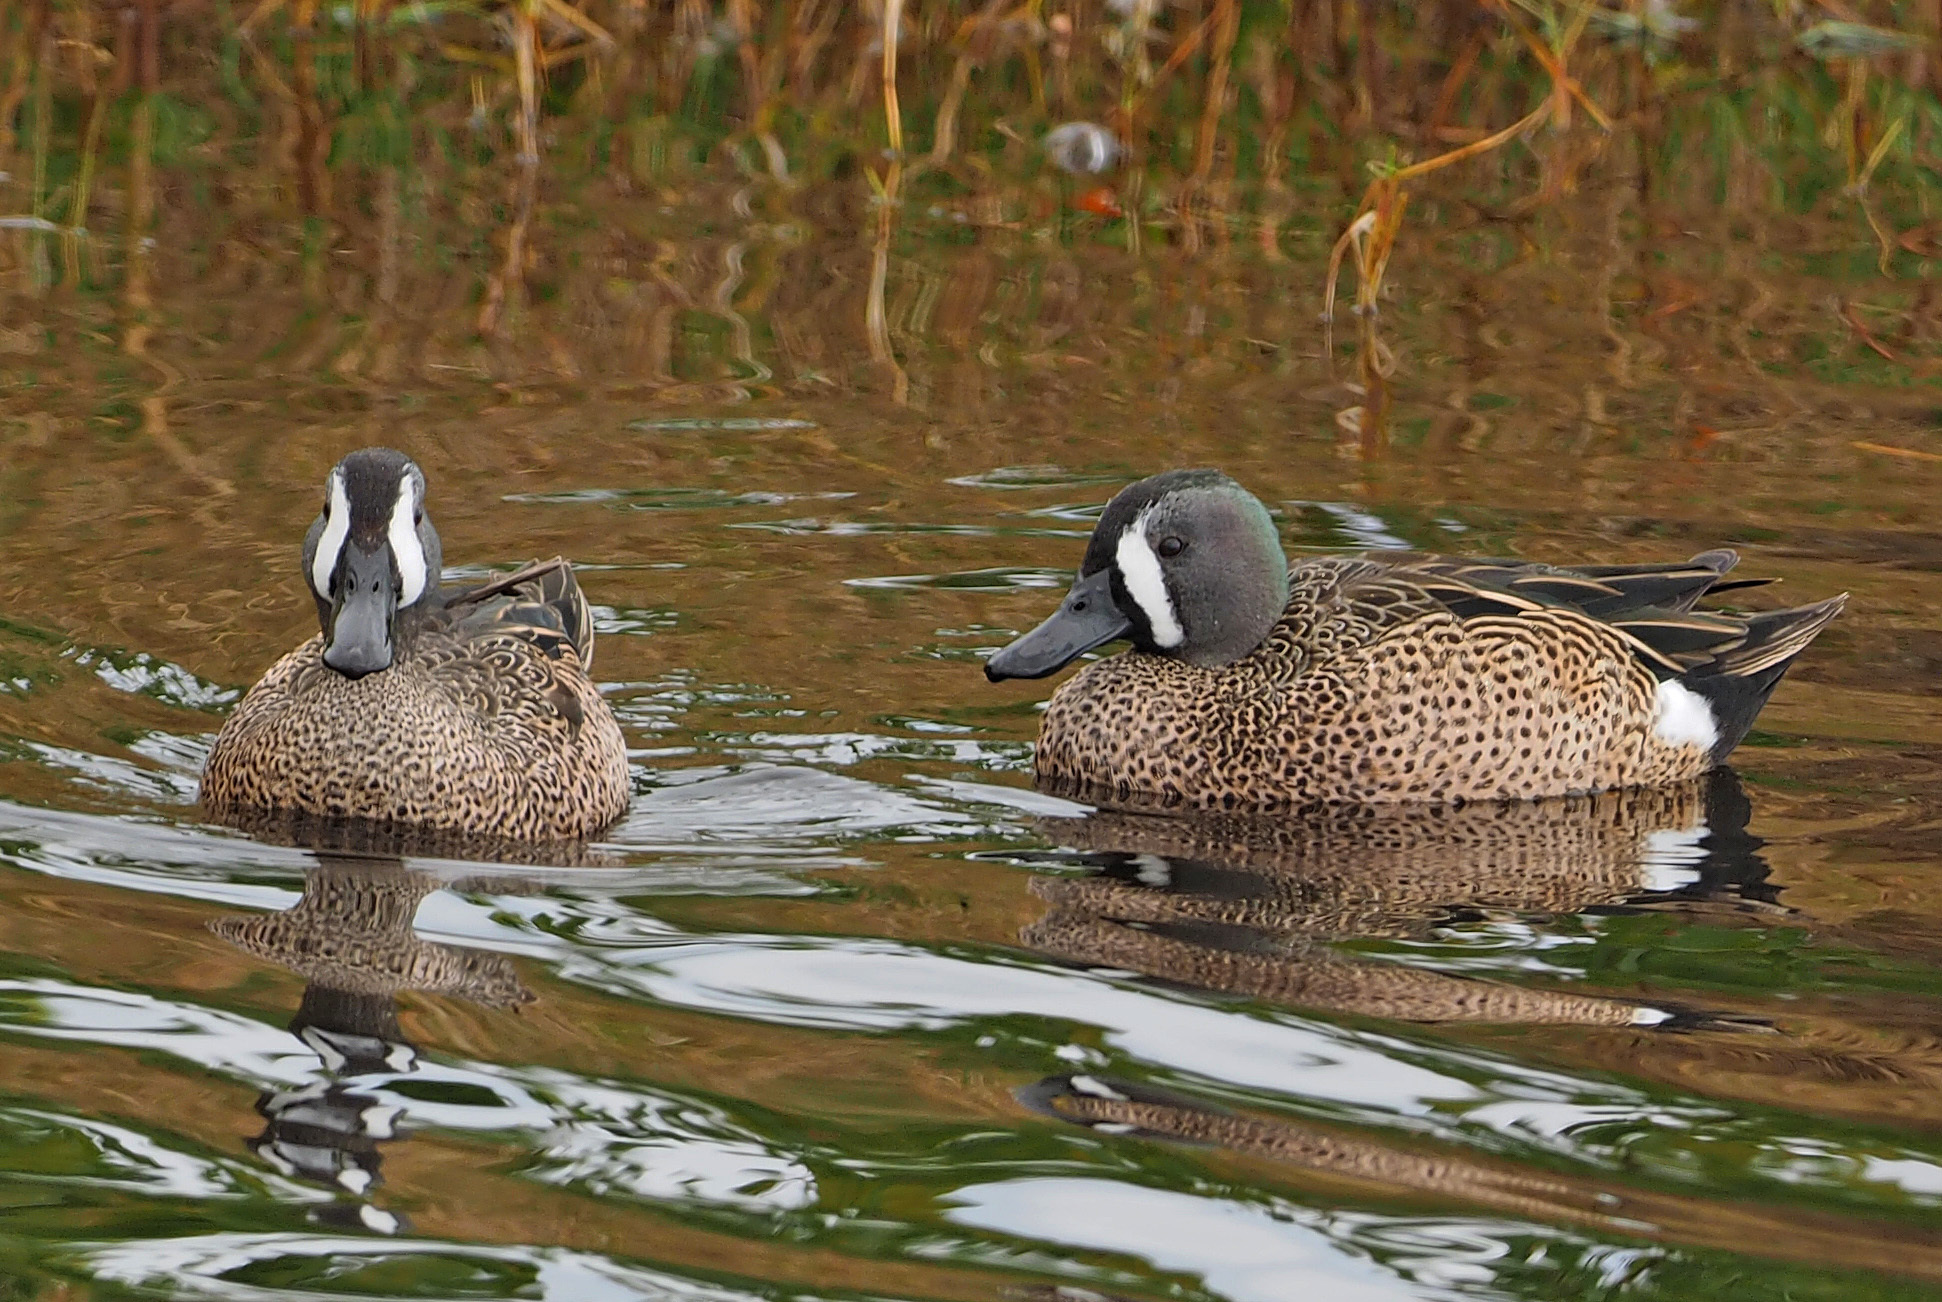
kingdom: Animalia
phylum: Chordata
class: Aves
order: Anseriformes
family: Anatidae
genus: Spatula
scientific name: Spatula discors
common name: Blue-winged teal
